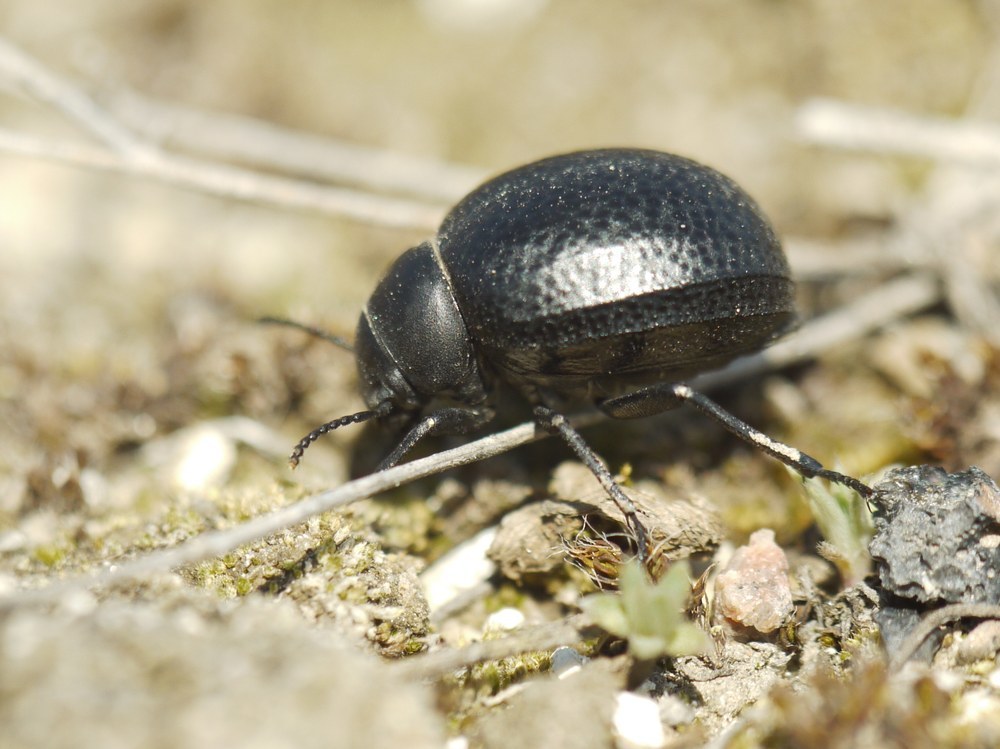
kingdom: Animalia
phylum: Arthropoda
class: Insecta
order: Coleoptera
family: Tenebrionidae
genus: Pimelia
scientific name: Pimelia subglobosa
